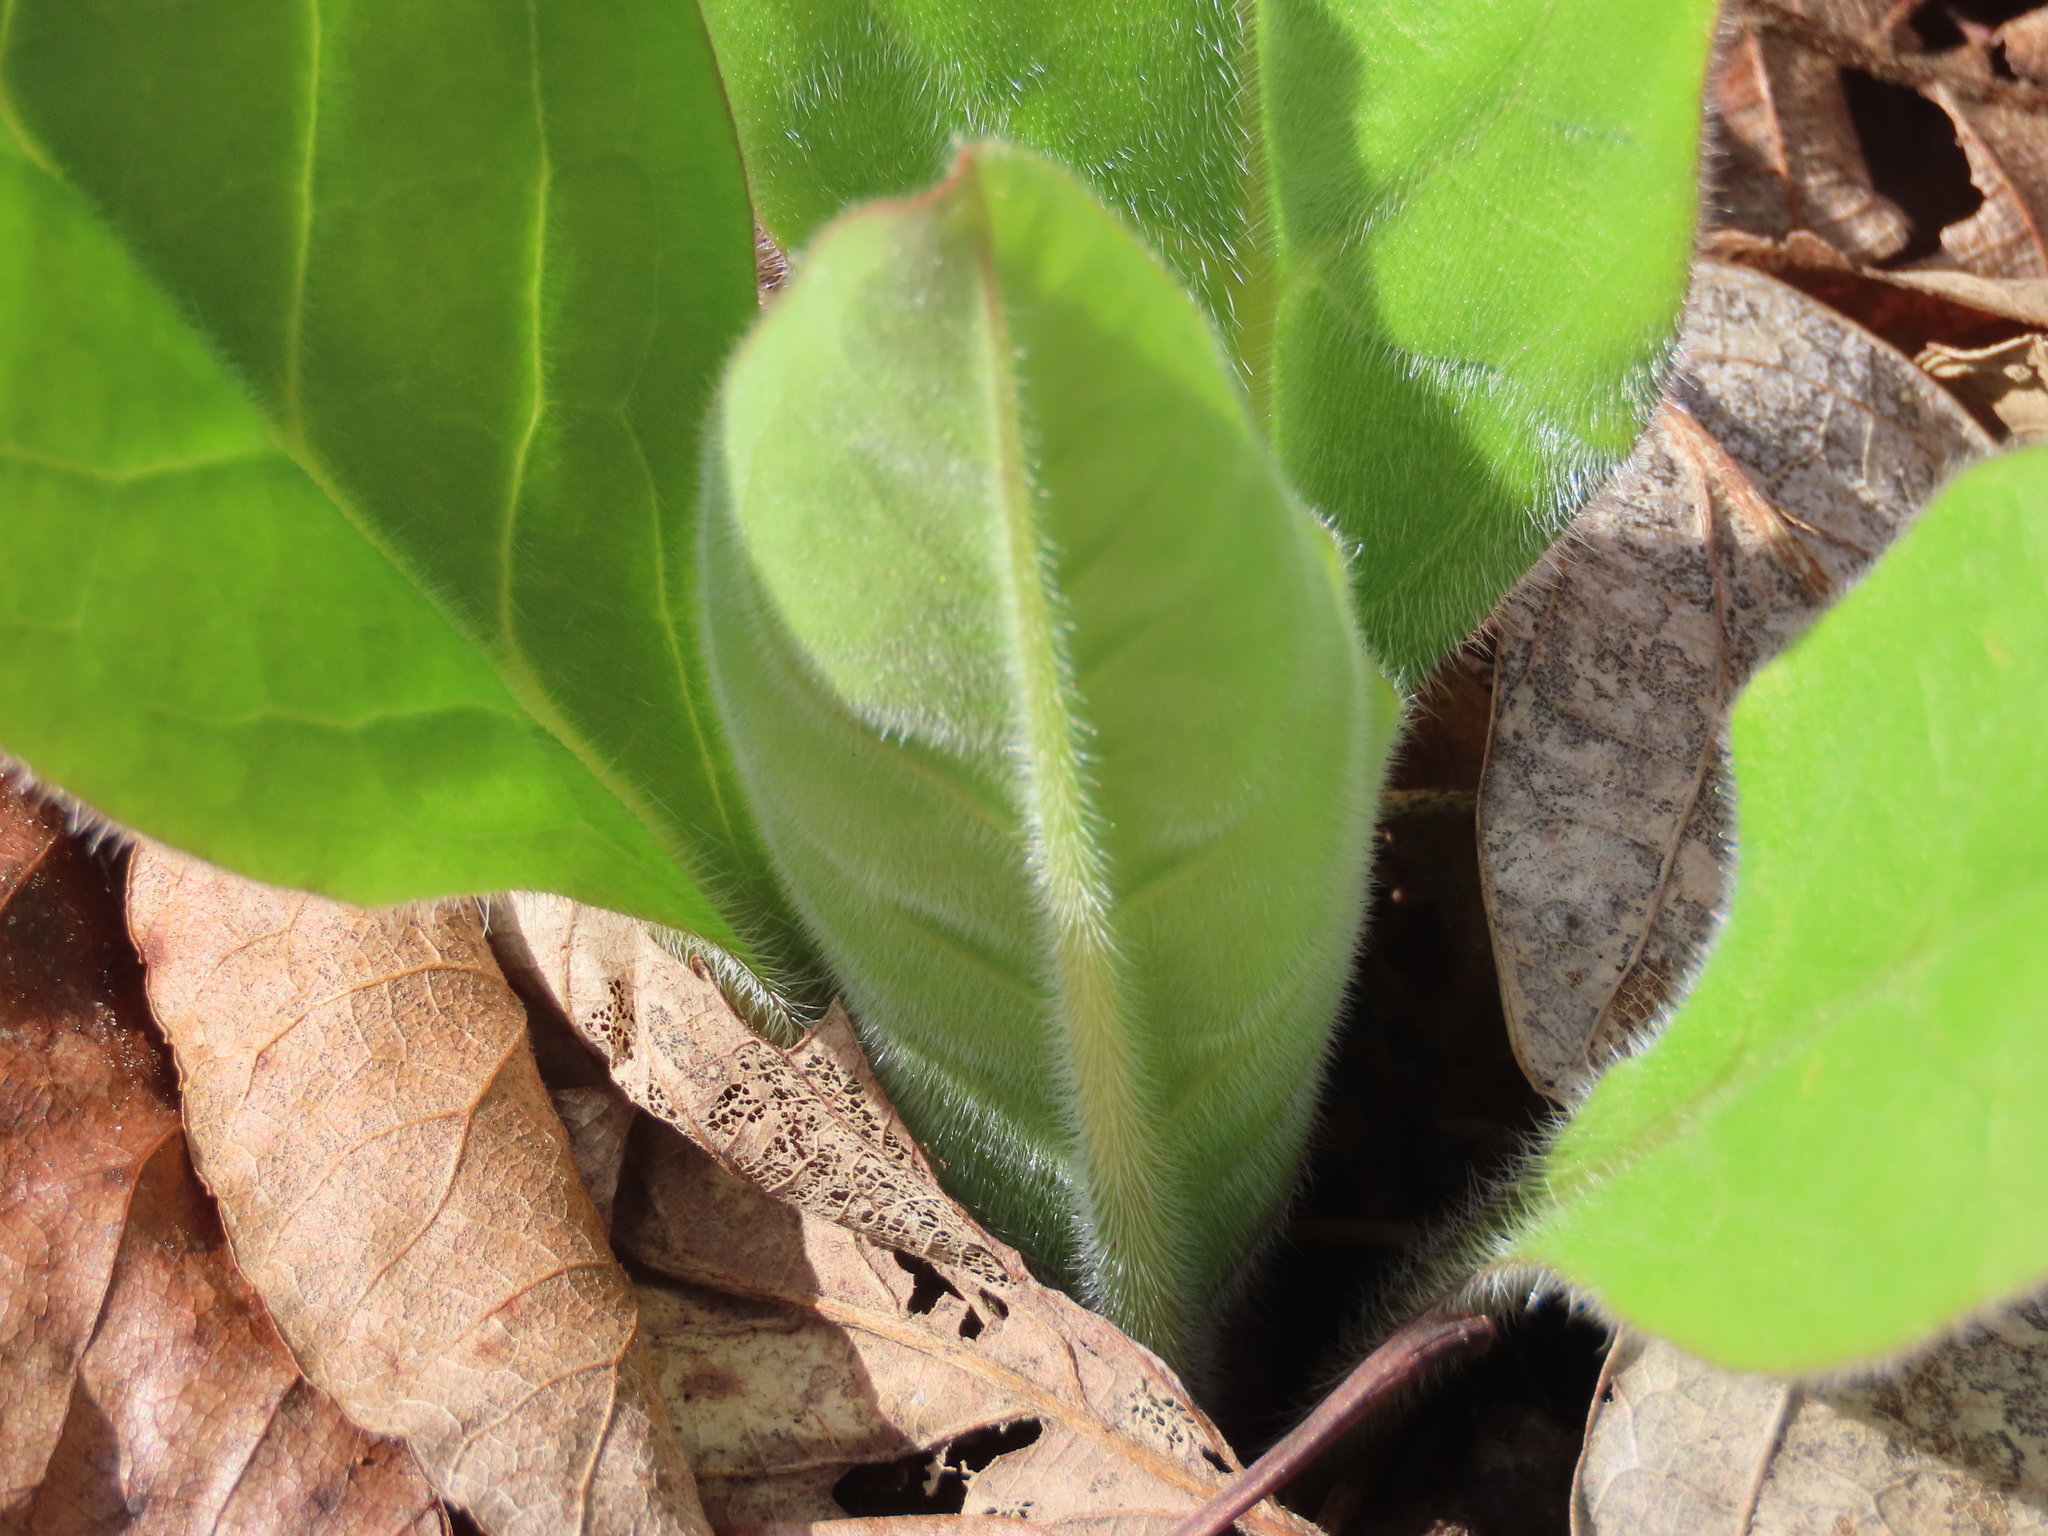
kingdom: Plantae
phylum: Tracheophyta
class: Magnoliopsida
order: Boraginales
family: Boraginaceae
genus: Andersonglossum
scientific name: Andersonglossum virginianum
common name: Wild comfrey
